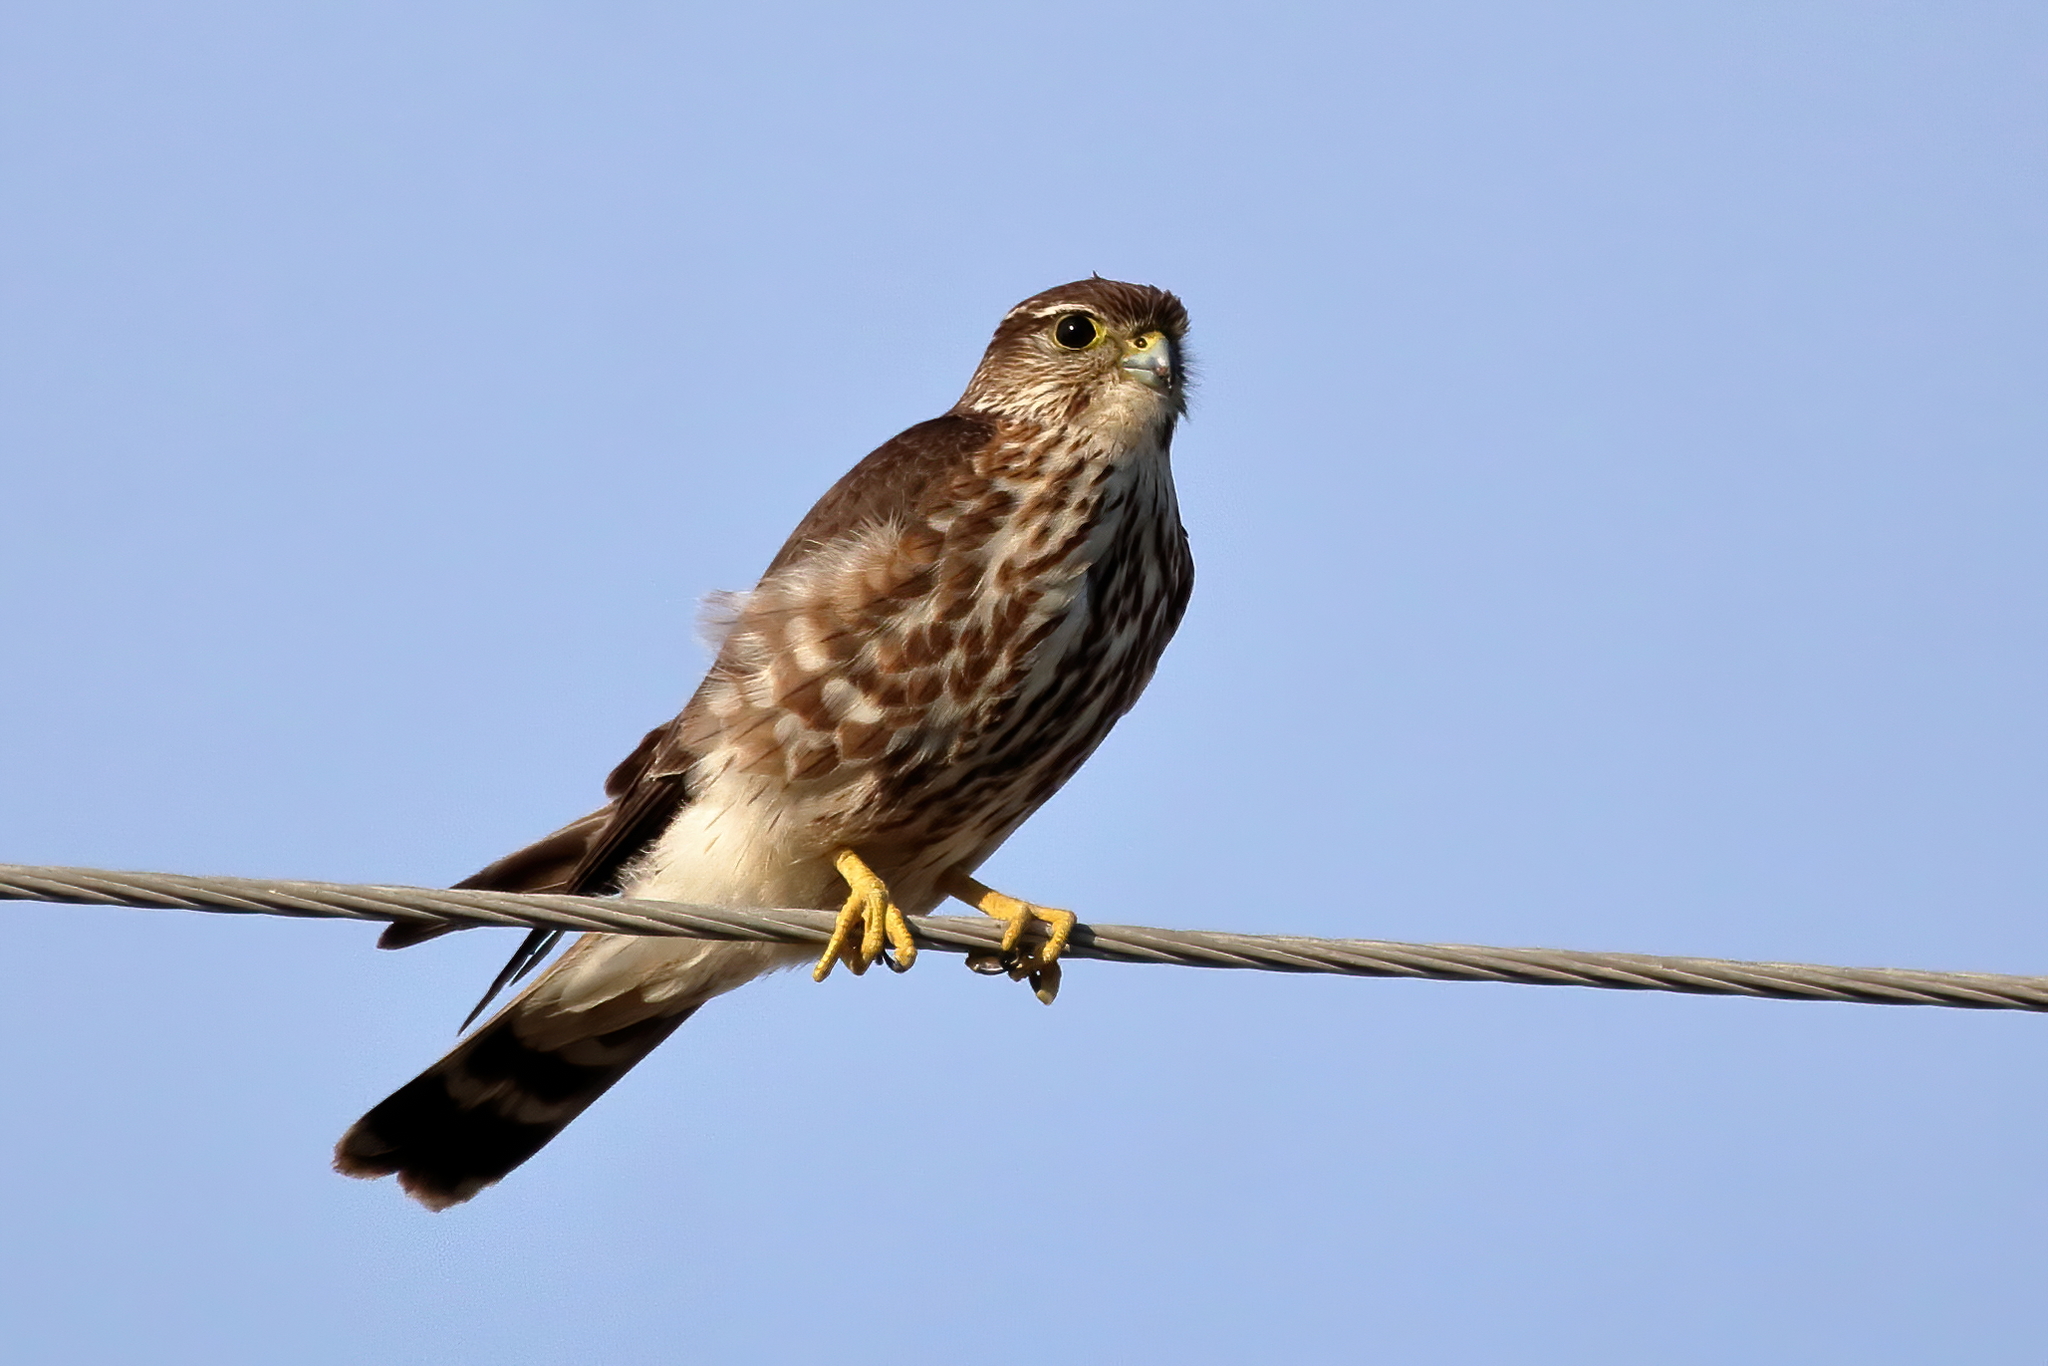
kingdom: Animalia
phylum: Chordata
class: Aves
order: Falconiformes
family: Falconidae
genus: Falco
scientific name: Falco columbarius
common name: Merlin
